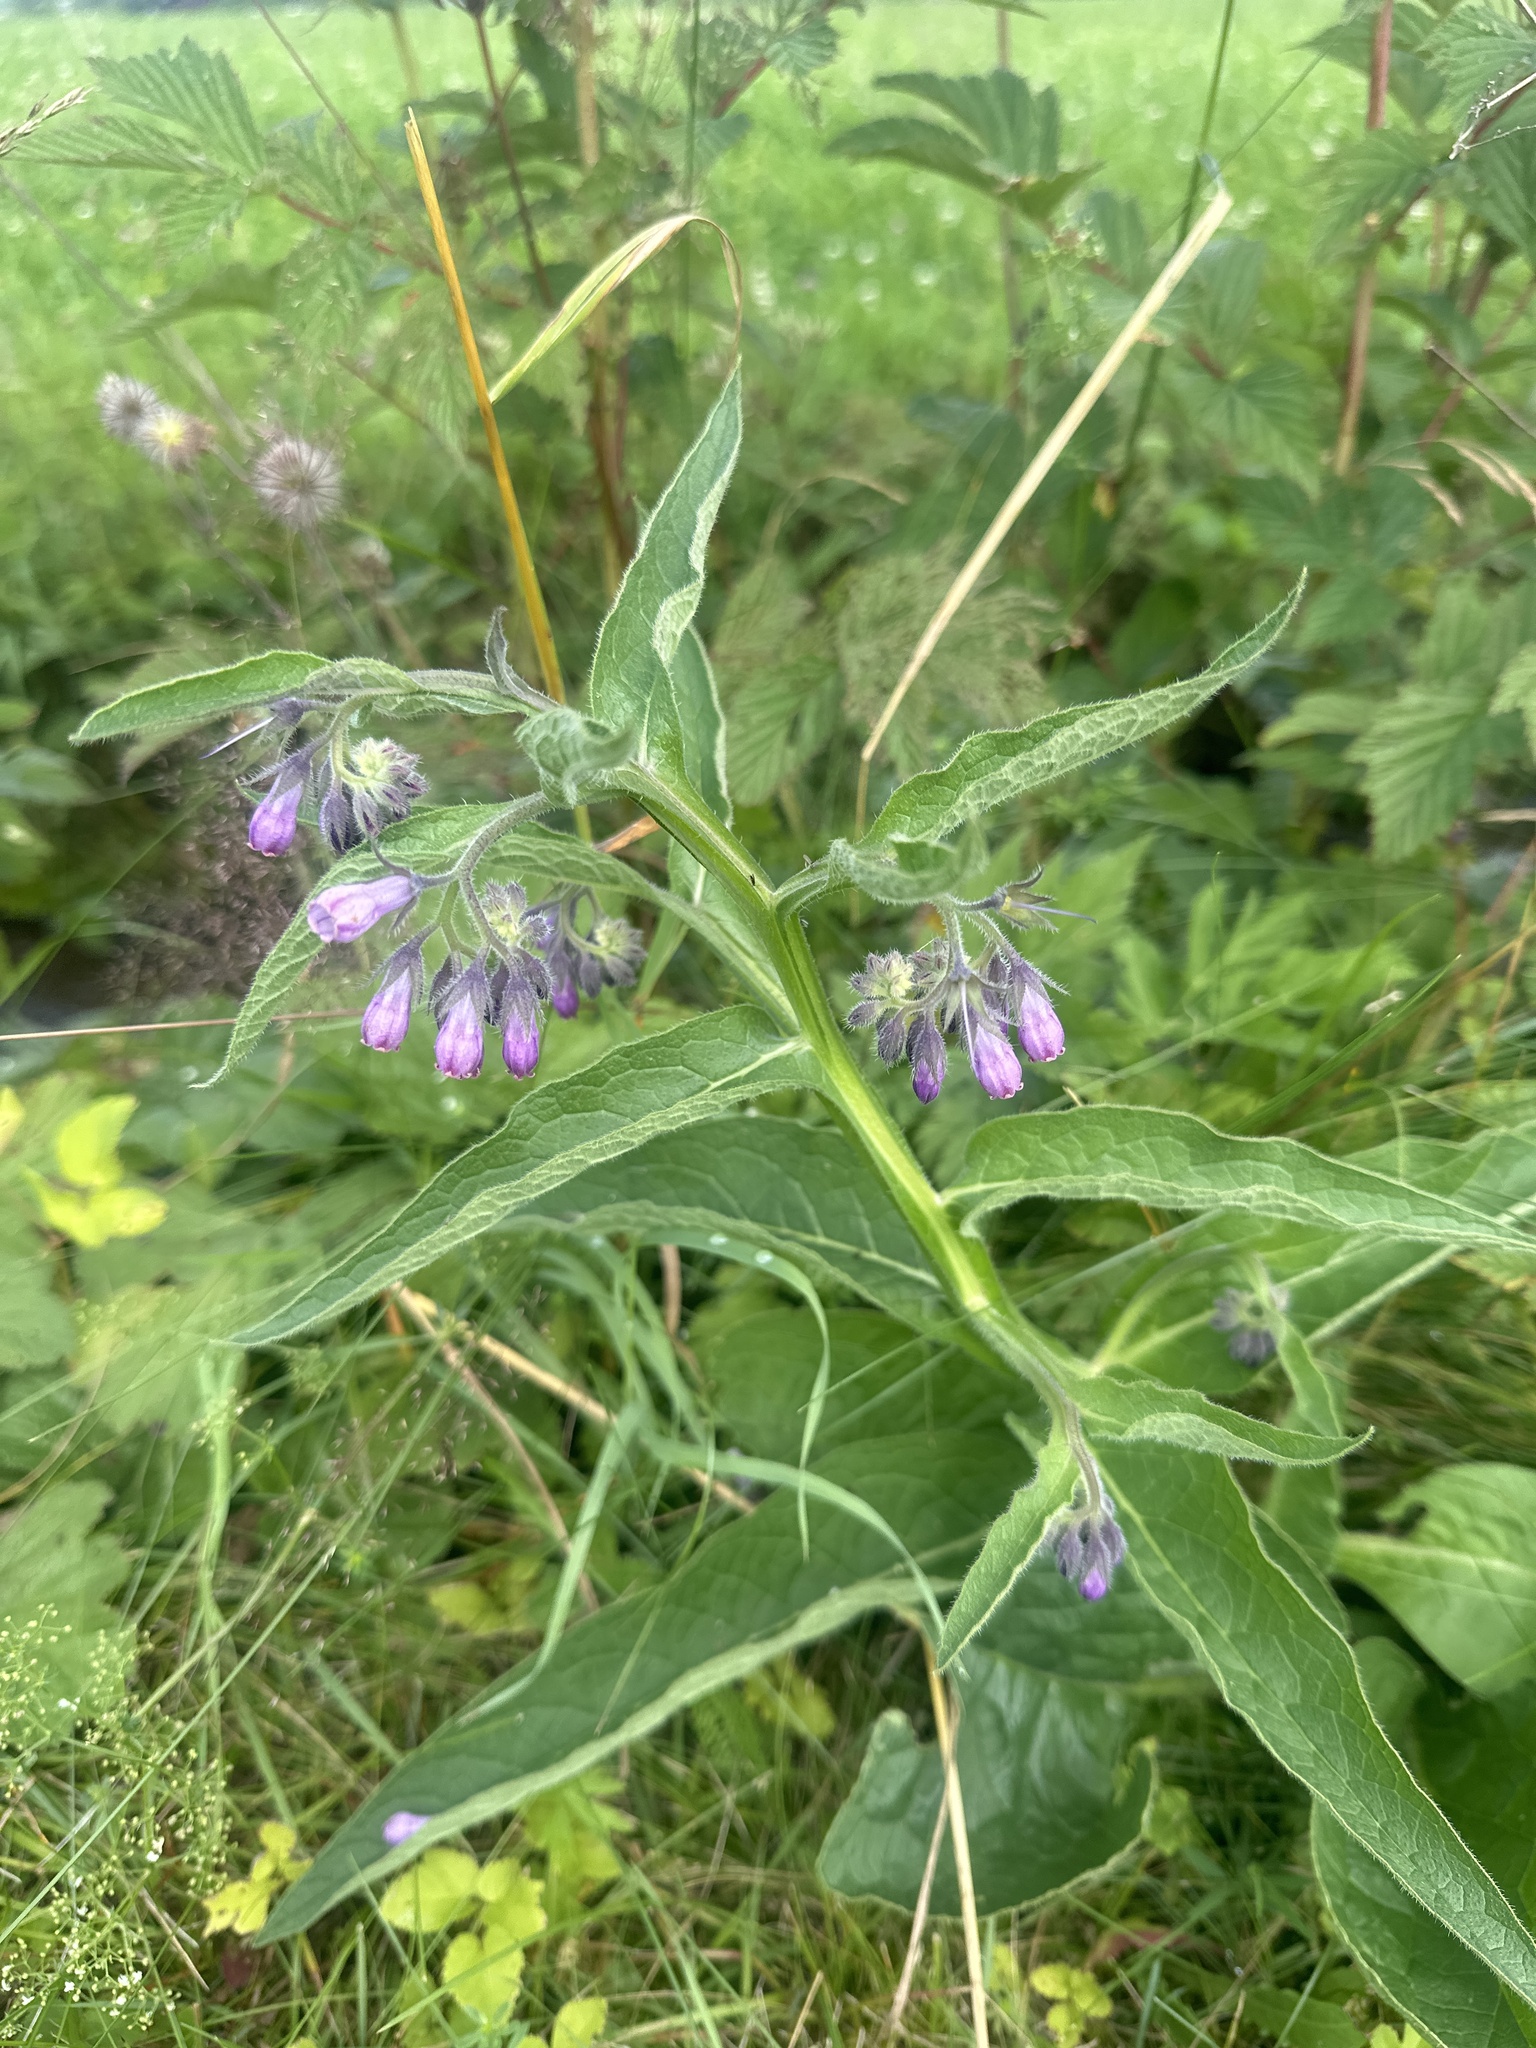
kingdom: Plantae
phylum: Tracheophyta
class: Magnoliopsida
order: Boraginales
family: Boraginaceae
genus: Symphytum
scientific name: Symphytum officinale
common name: Common comfrey
